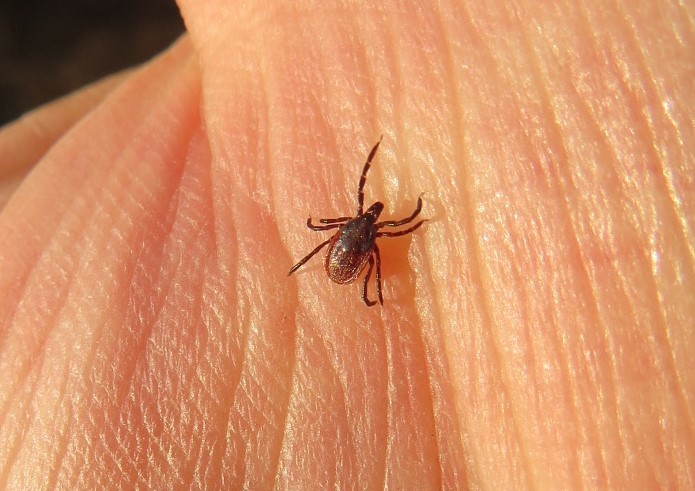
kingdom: Animalia
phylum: Arthropoda
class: Arachnida
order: Ixodida
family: Ixodidae
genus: Ixodes
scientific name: Ixodes pacificus
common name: California black-legged tick
